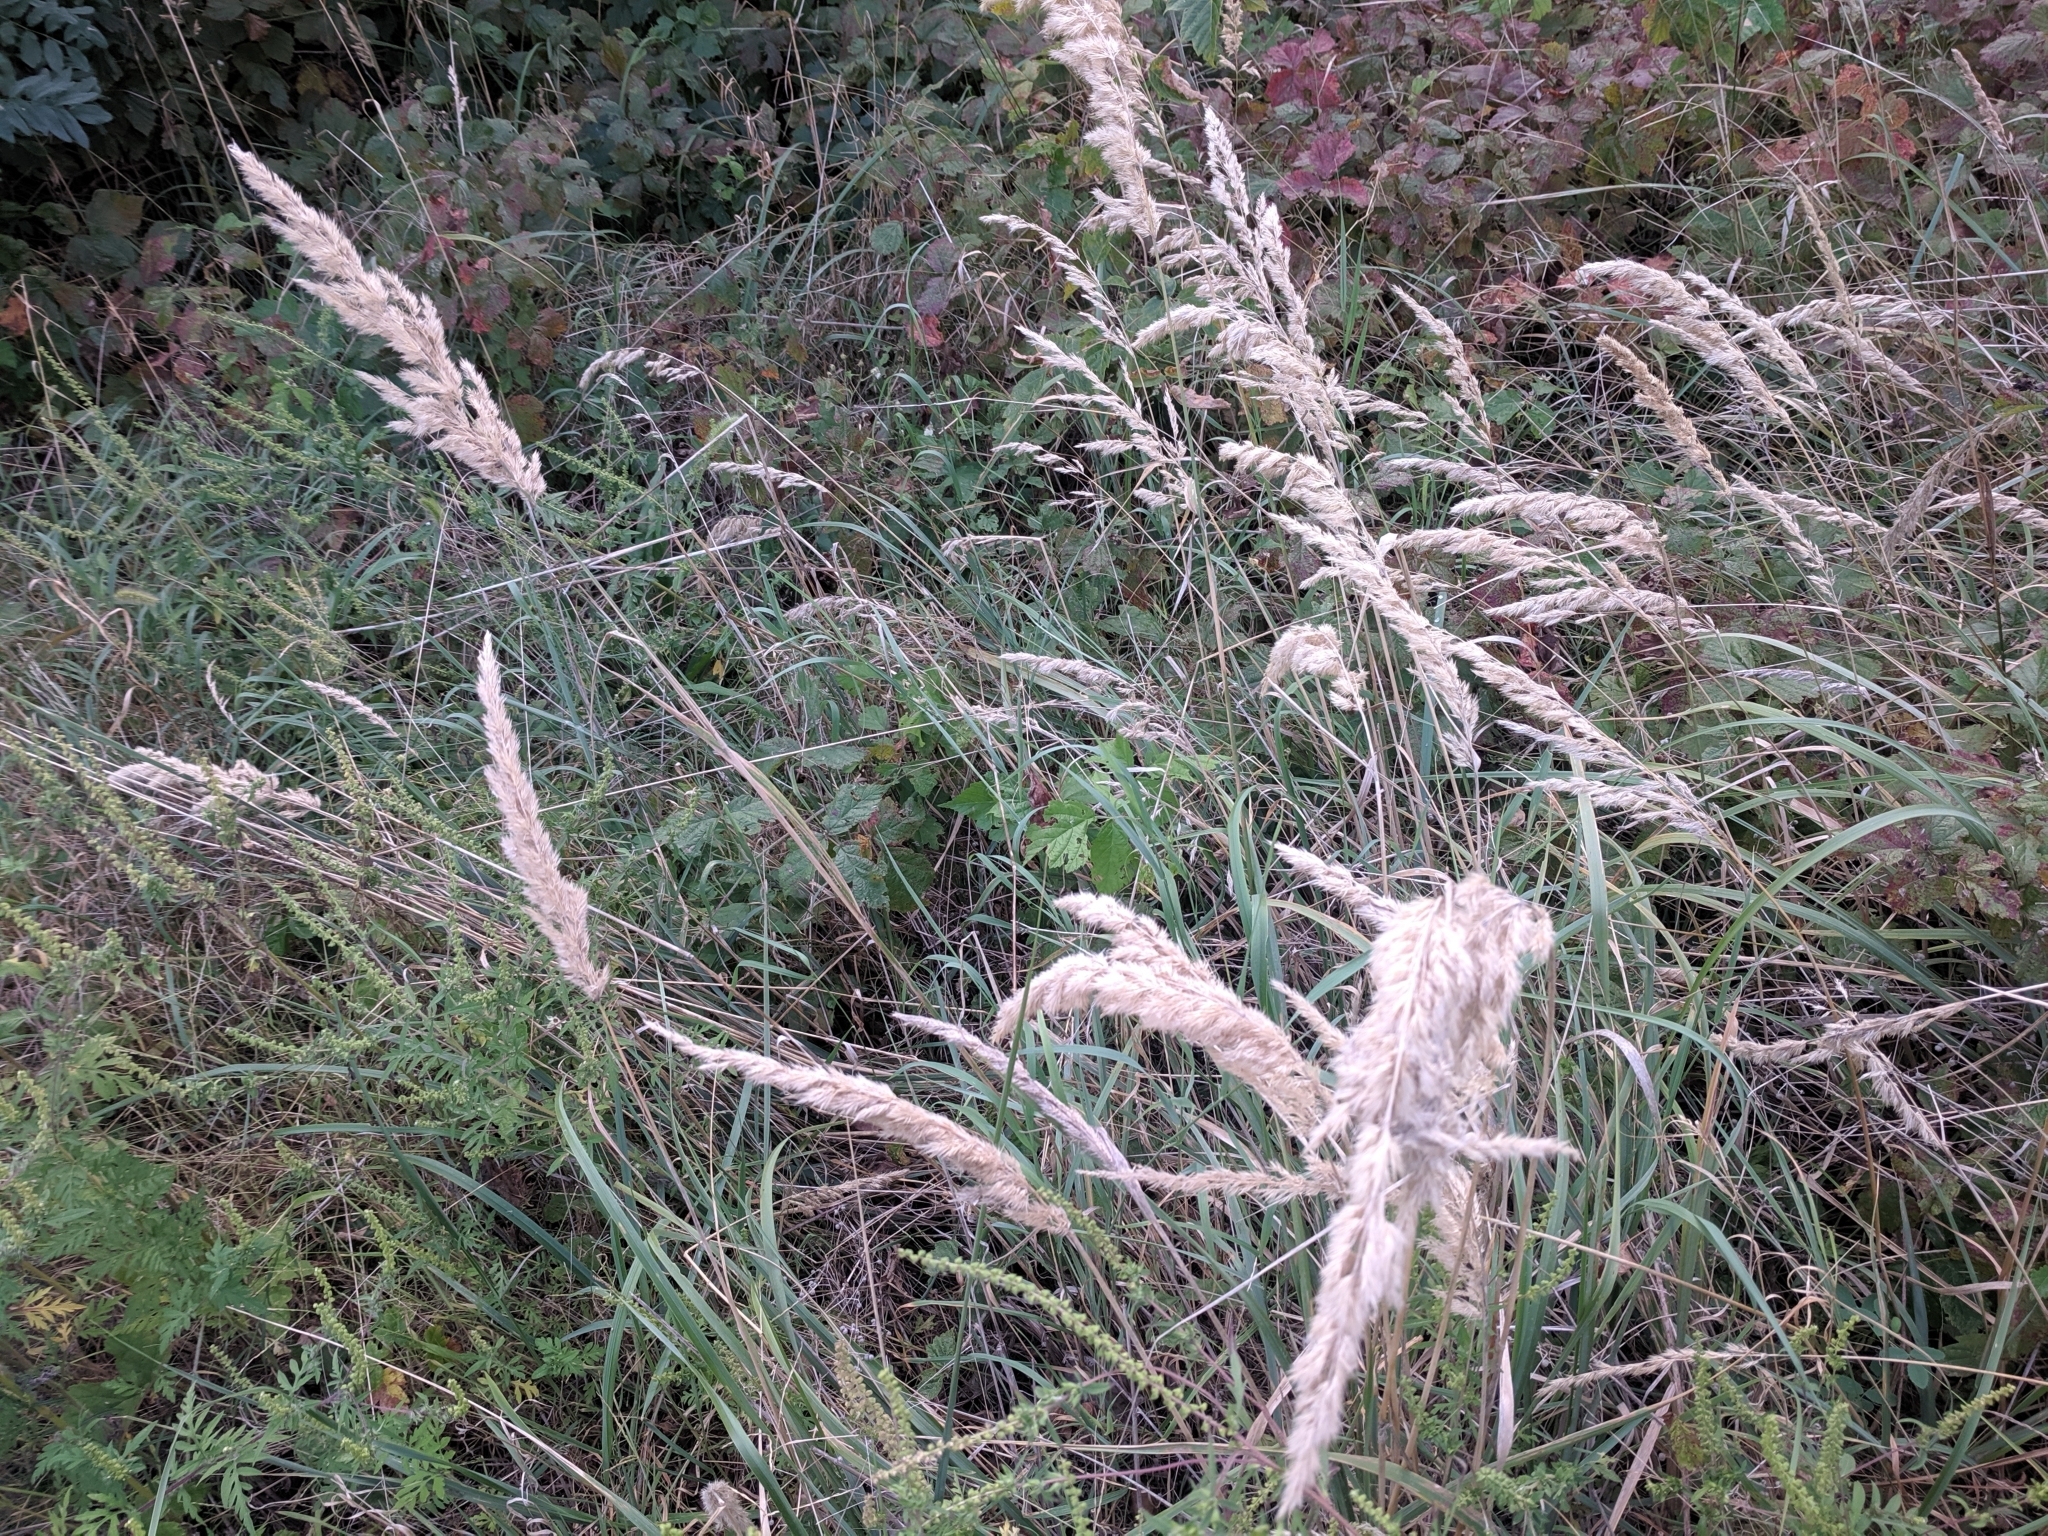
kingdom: Plantae
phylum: Tracheophyta
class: Liliopsida
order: Poales
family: Poaceae
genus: Calamagrostis
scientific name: Calamagrostis epigejos
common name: Wood small-reed
